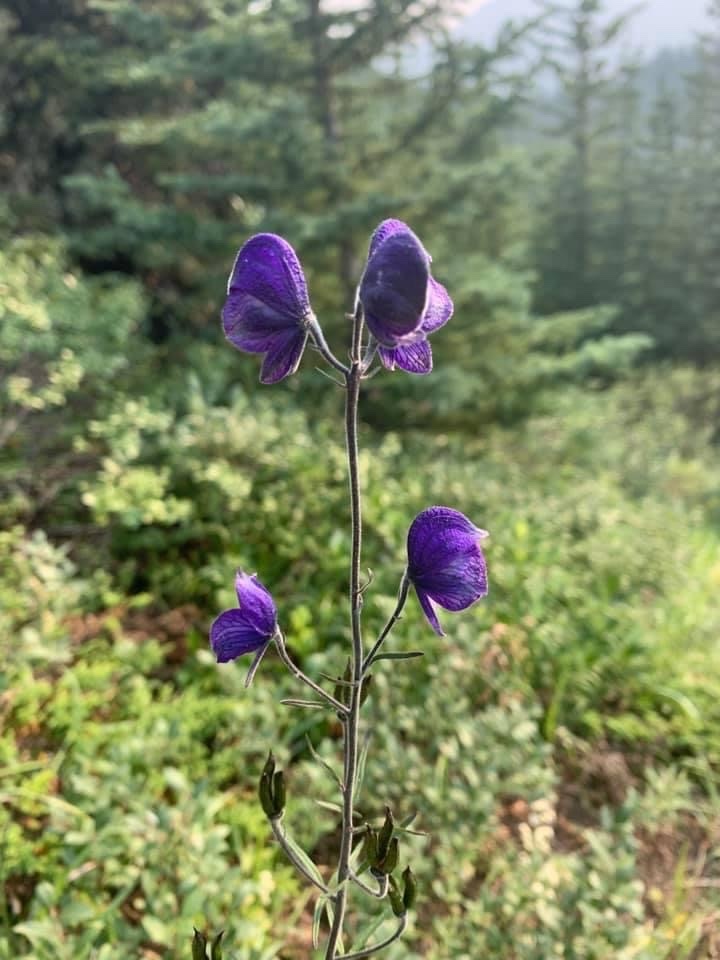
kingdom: Plantae
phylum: Tracheophyta
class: Magnoliopsida
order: Ranunculales
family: Ranunculaceae
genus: Aconitum
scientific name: Aconitum delphiniifolium
